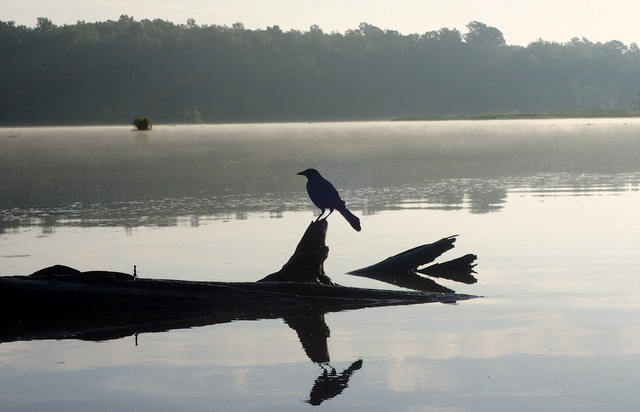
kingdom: Animalia
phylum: Chordata
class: Aves
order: Passeriformes
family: Icteridae
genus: Quiscalus
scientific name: Quiscalus quiscula
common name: Common grackle
